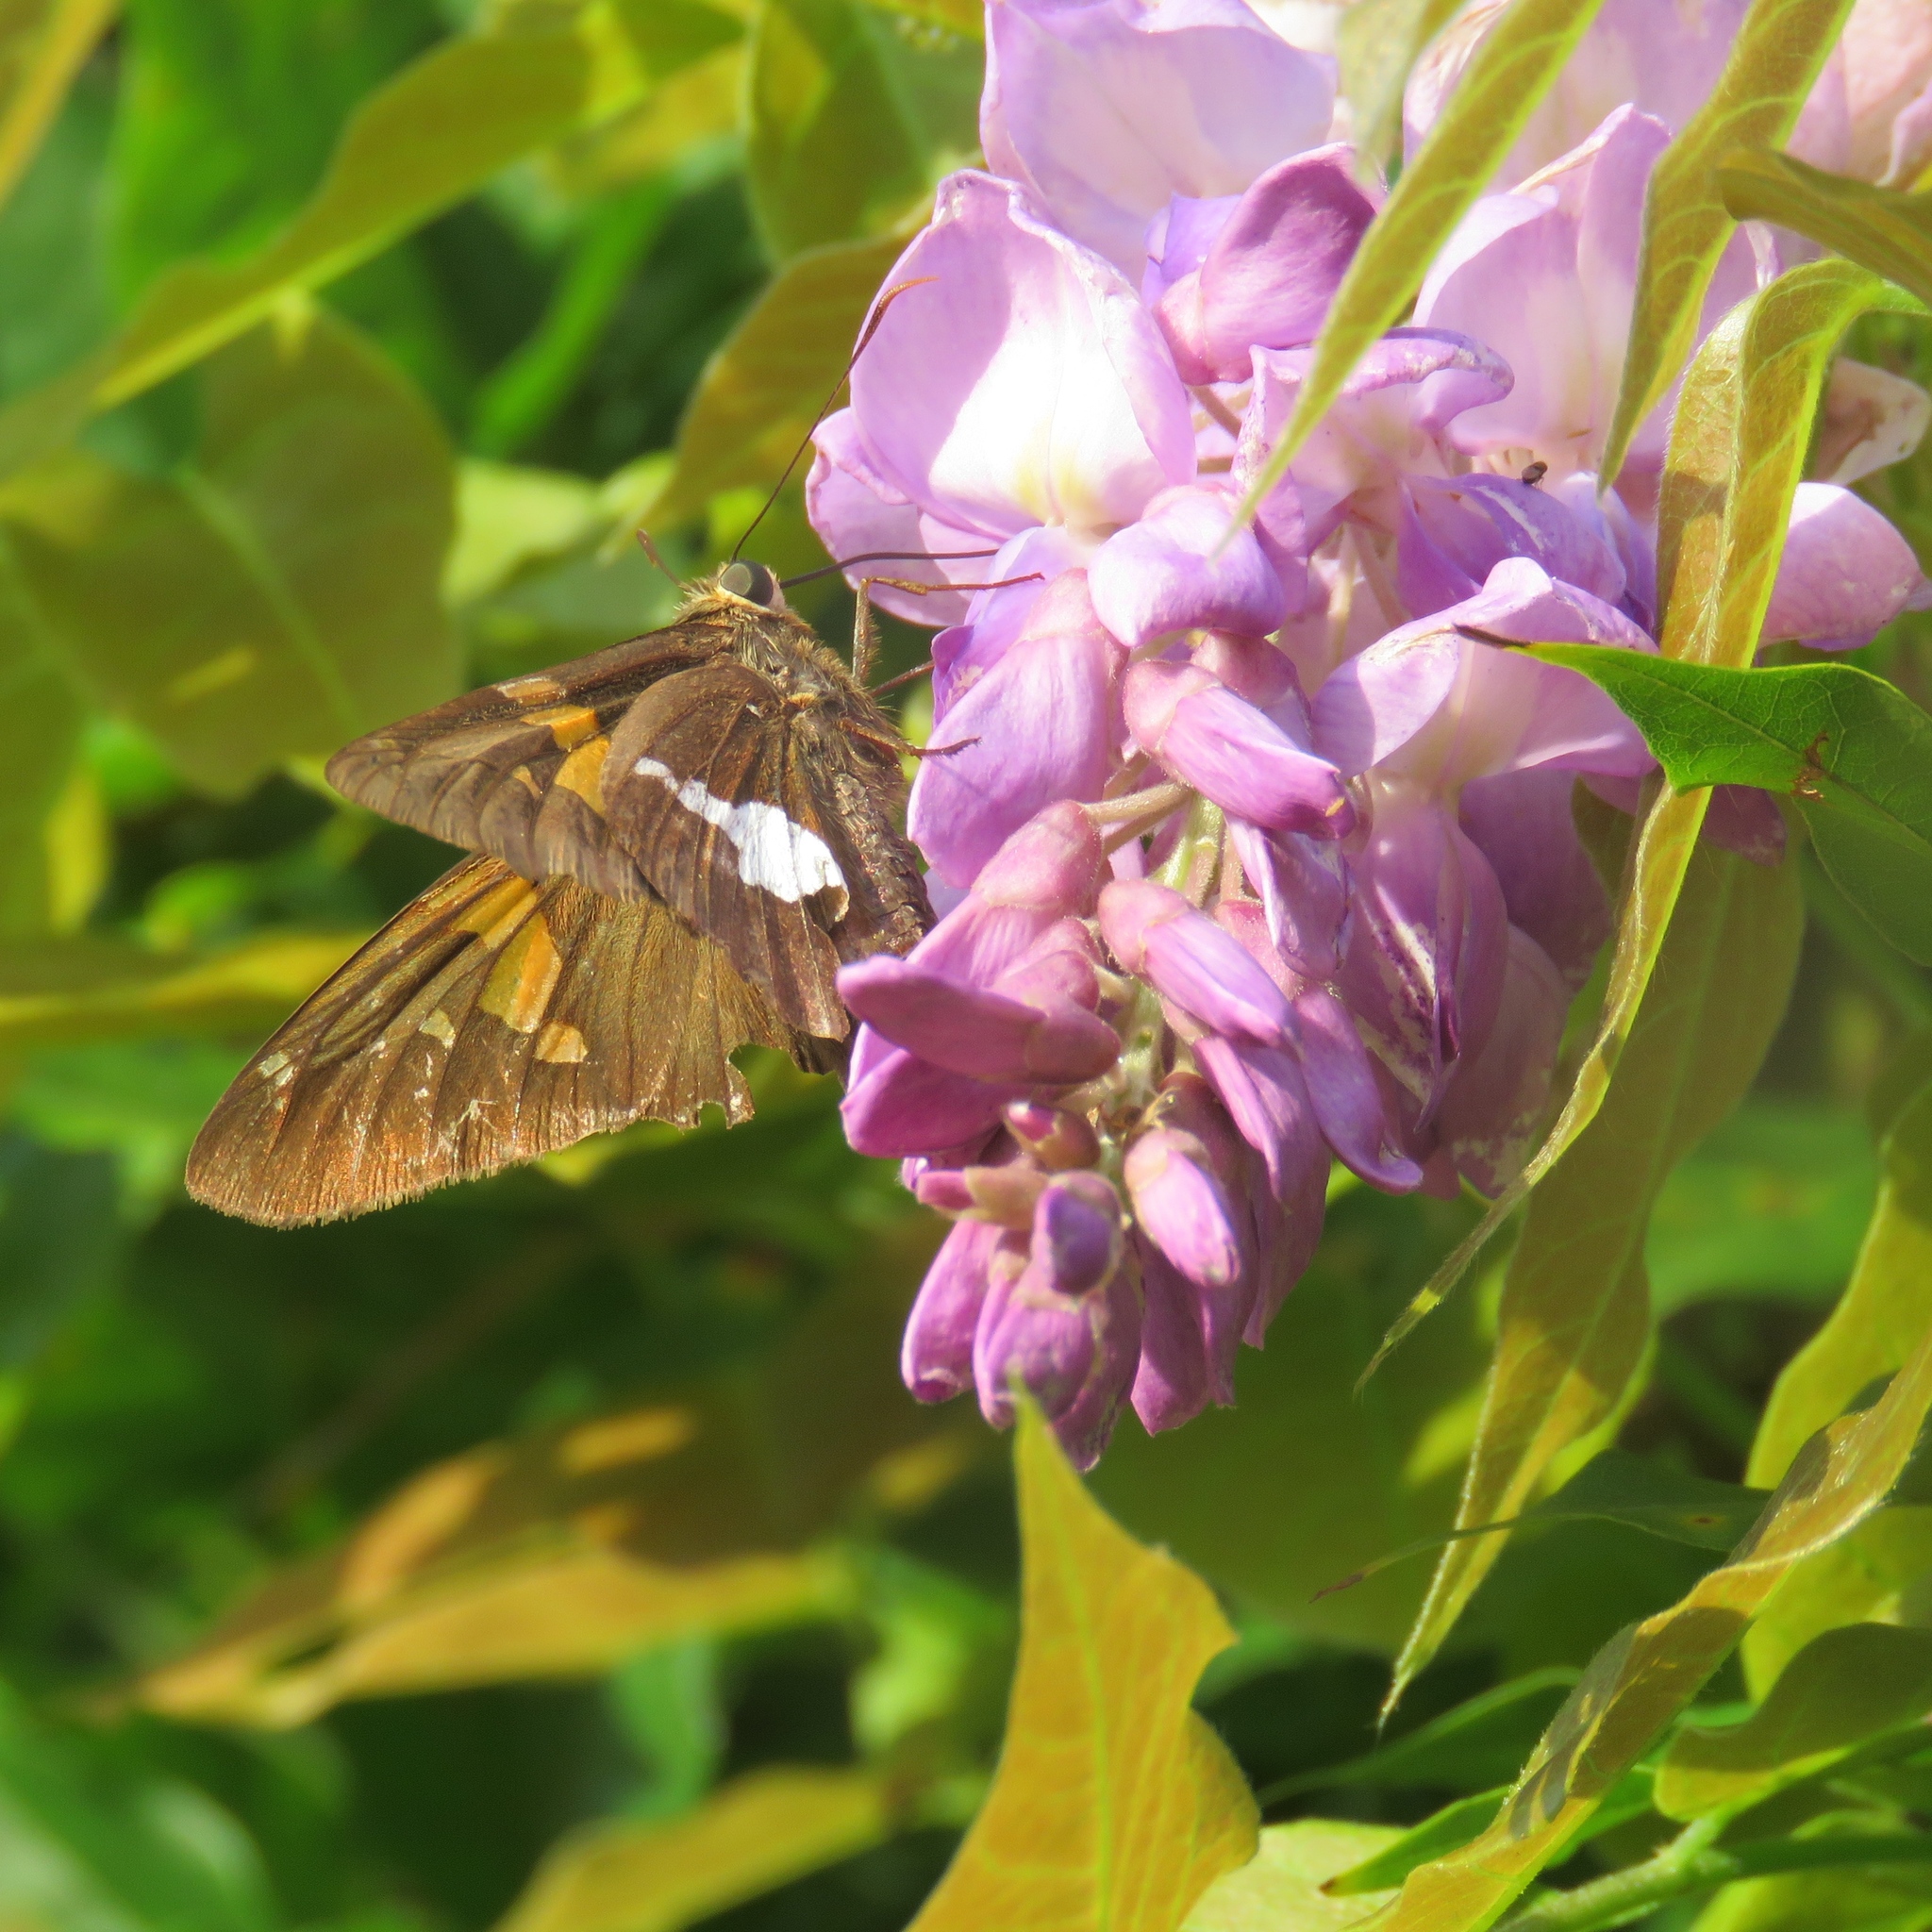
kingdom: Animalia
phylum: Arthropoda
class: Insecta
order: Lepidoptera
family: Hesperiidae
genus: Epargyreus
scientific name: Epargyreus clarus
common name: Silver-spotted skipper
